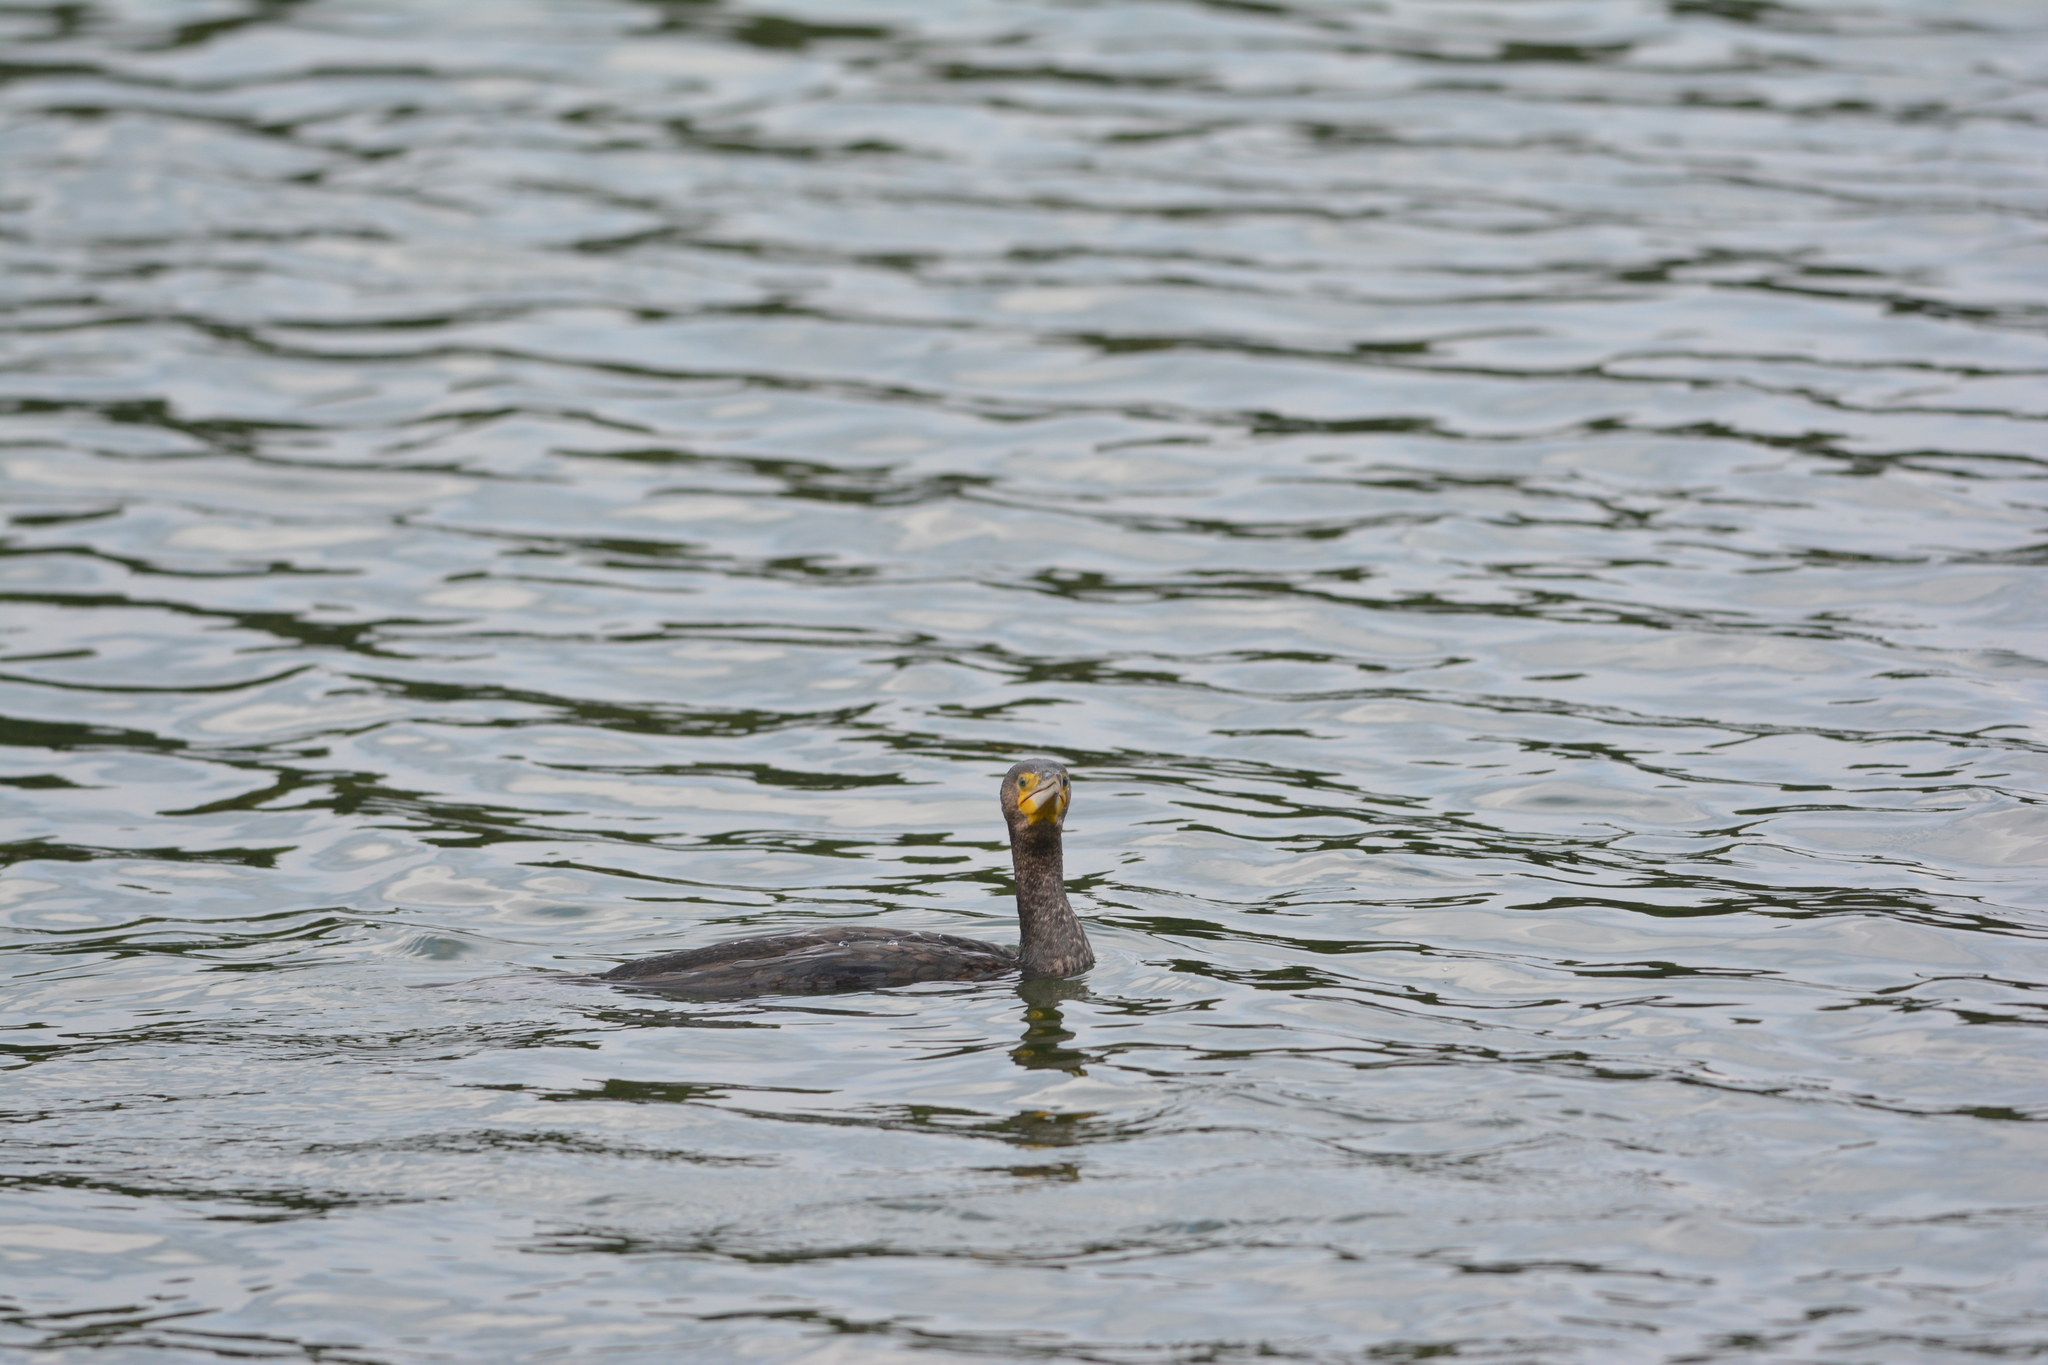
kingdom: Animalia
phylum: Chordata
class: Aves
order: Suliformes
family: Phalacrocoracidae
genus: Phalacrocorax
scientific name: Phalacrocorax carbo
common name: Great cormorant
